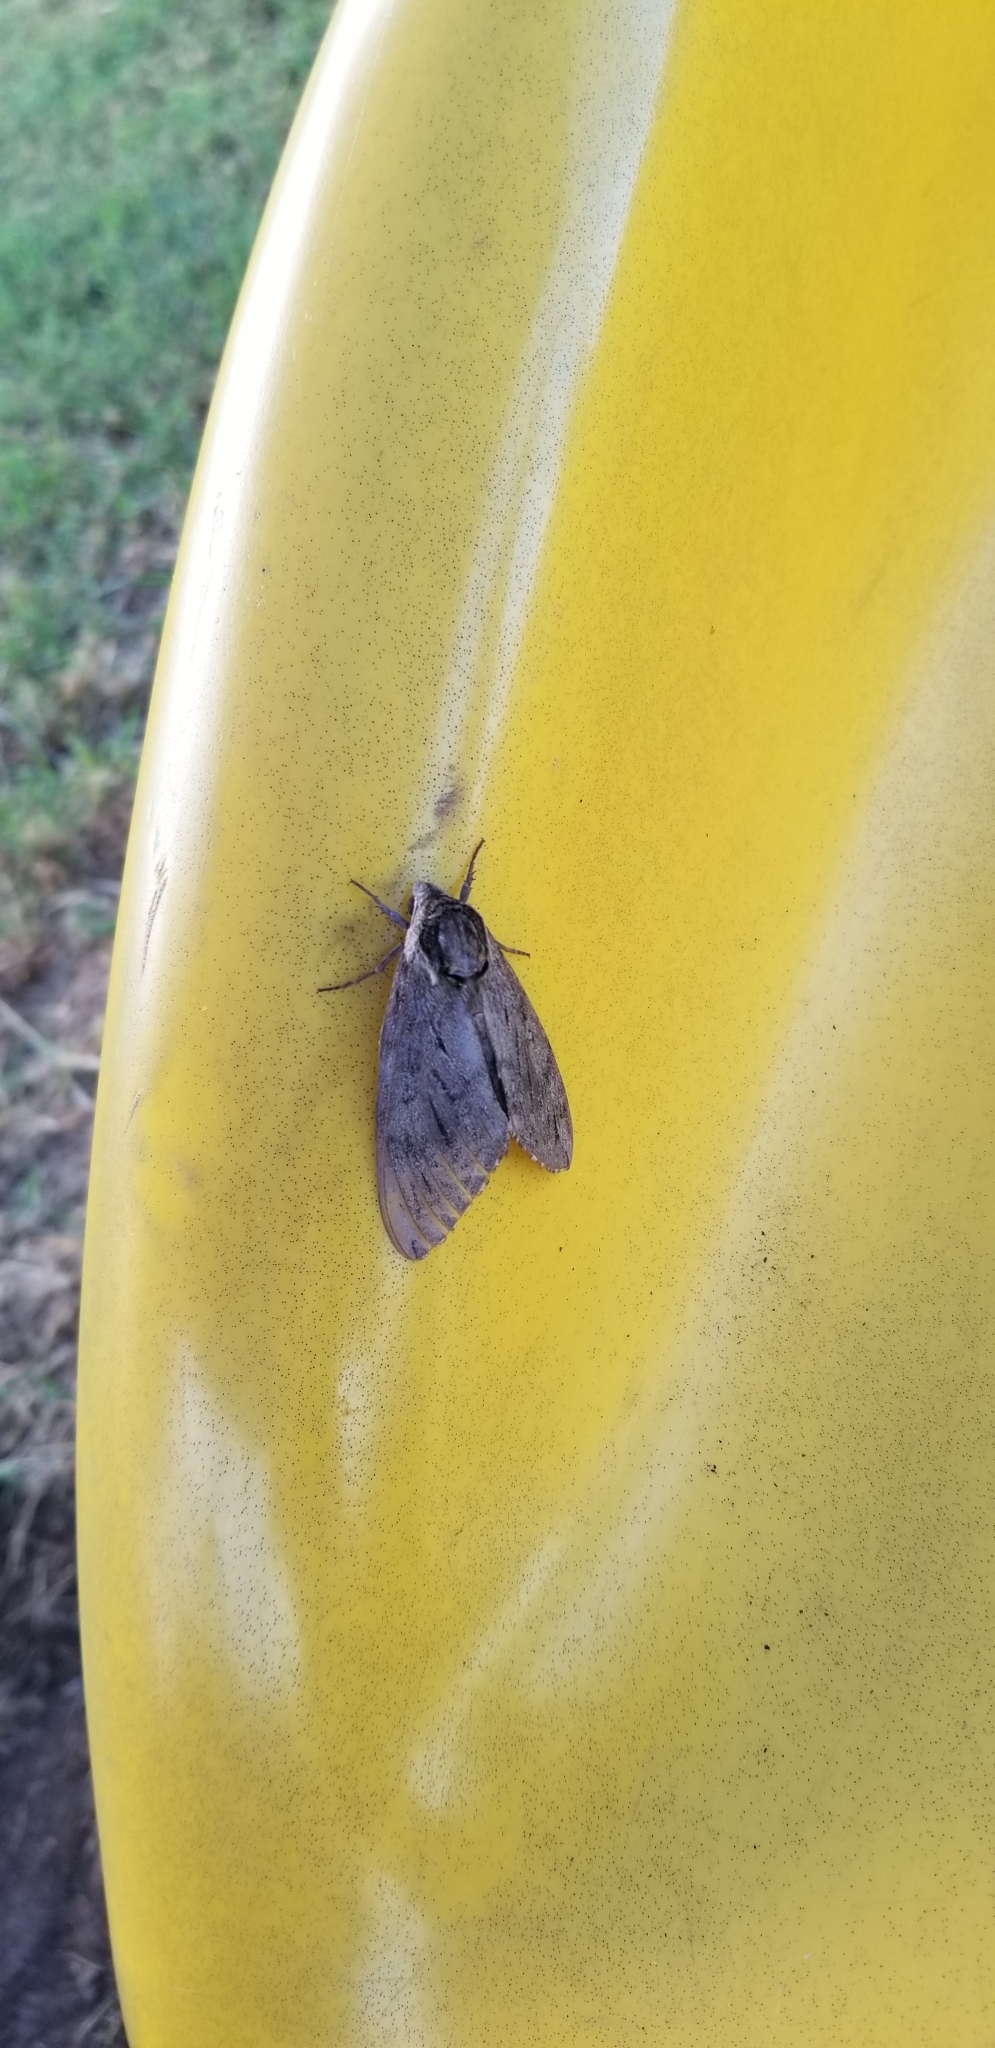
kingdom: Animalia
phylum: Arthropoda
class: Insecta
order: Lepidoptera
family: Sphingidae
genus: Ceratomia
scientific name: Ceratomia catalpae
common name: Catalpa hornworm
